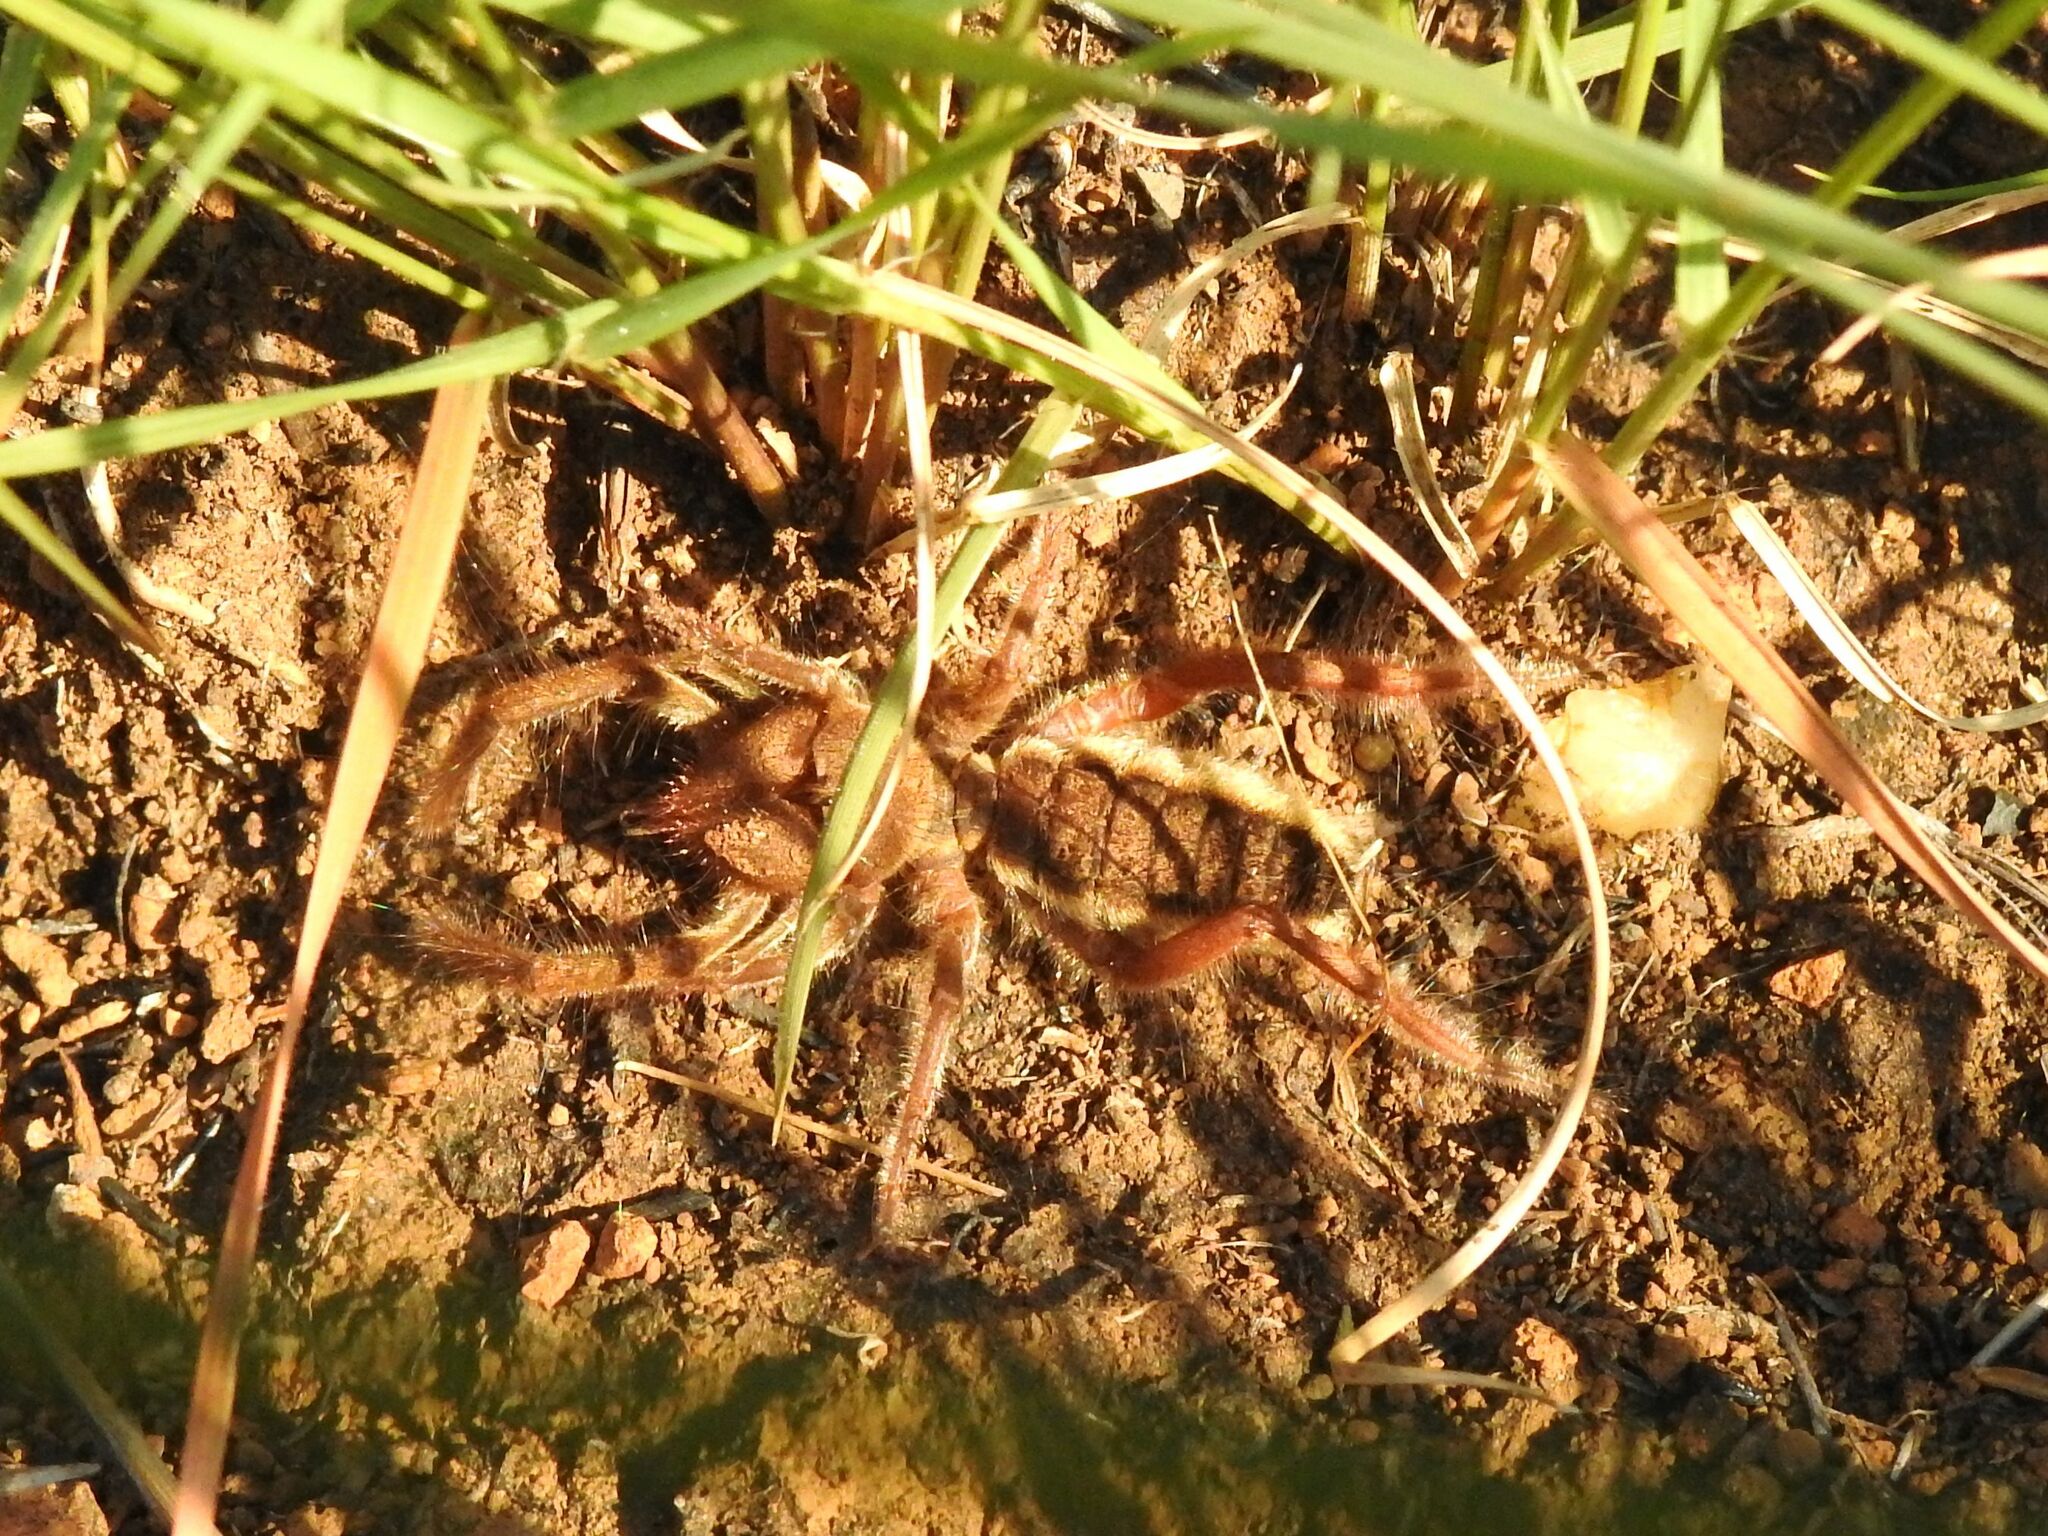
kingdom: Animalia
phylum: Arthropoda
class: Arachnida
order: Solifugae
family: Solpugidae
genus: Solpugema
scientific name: Solpugema hostilis
